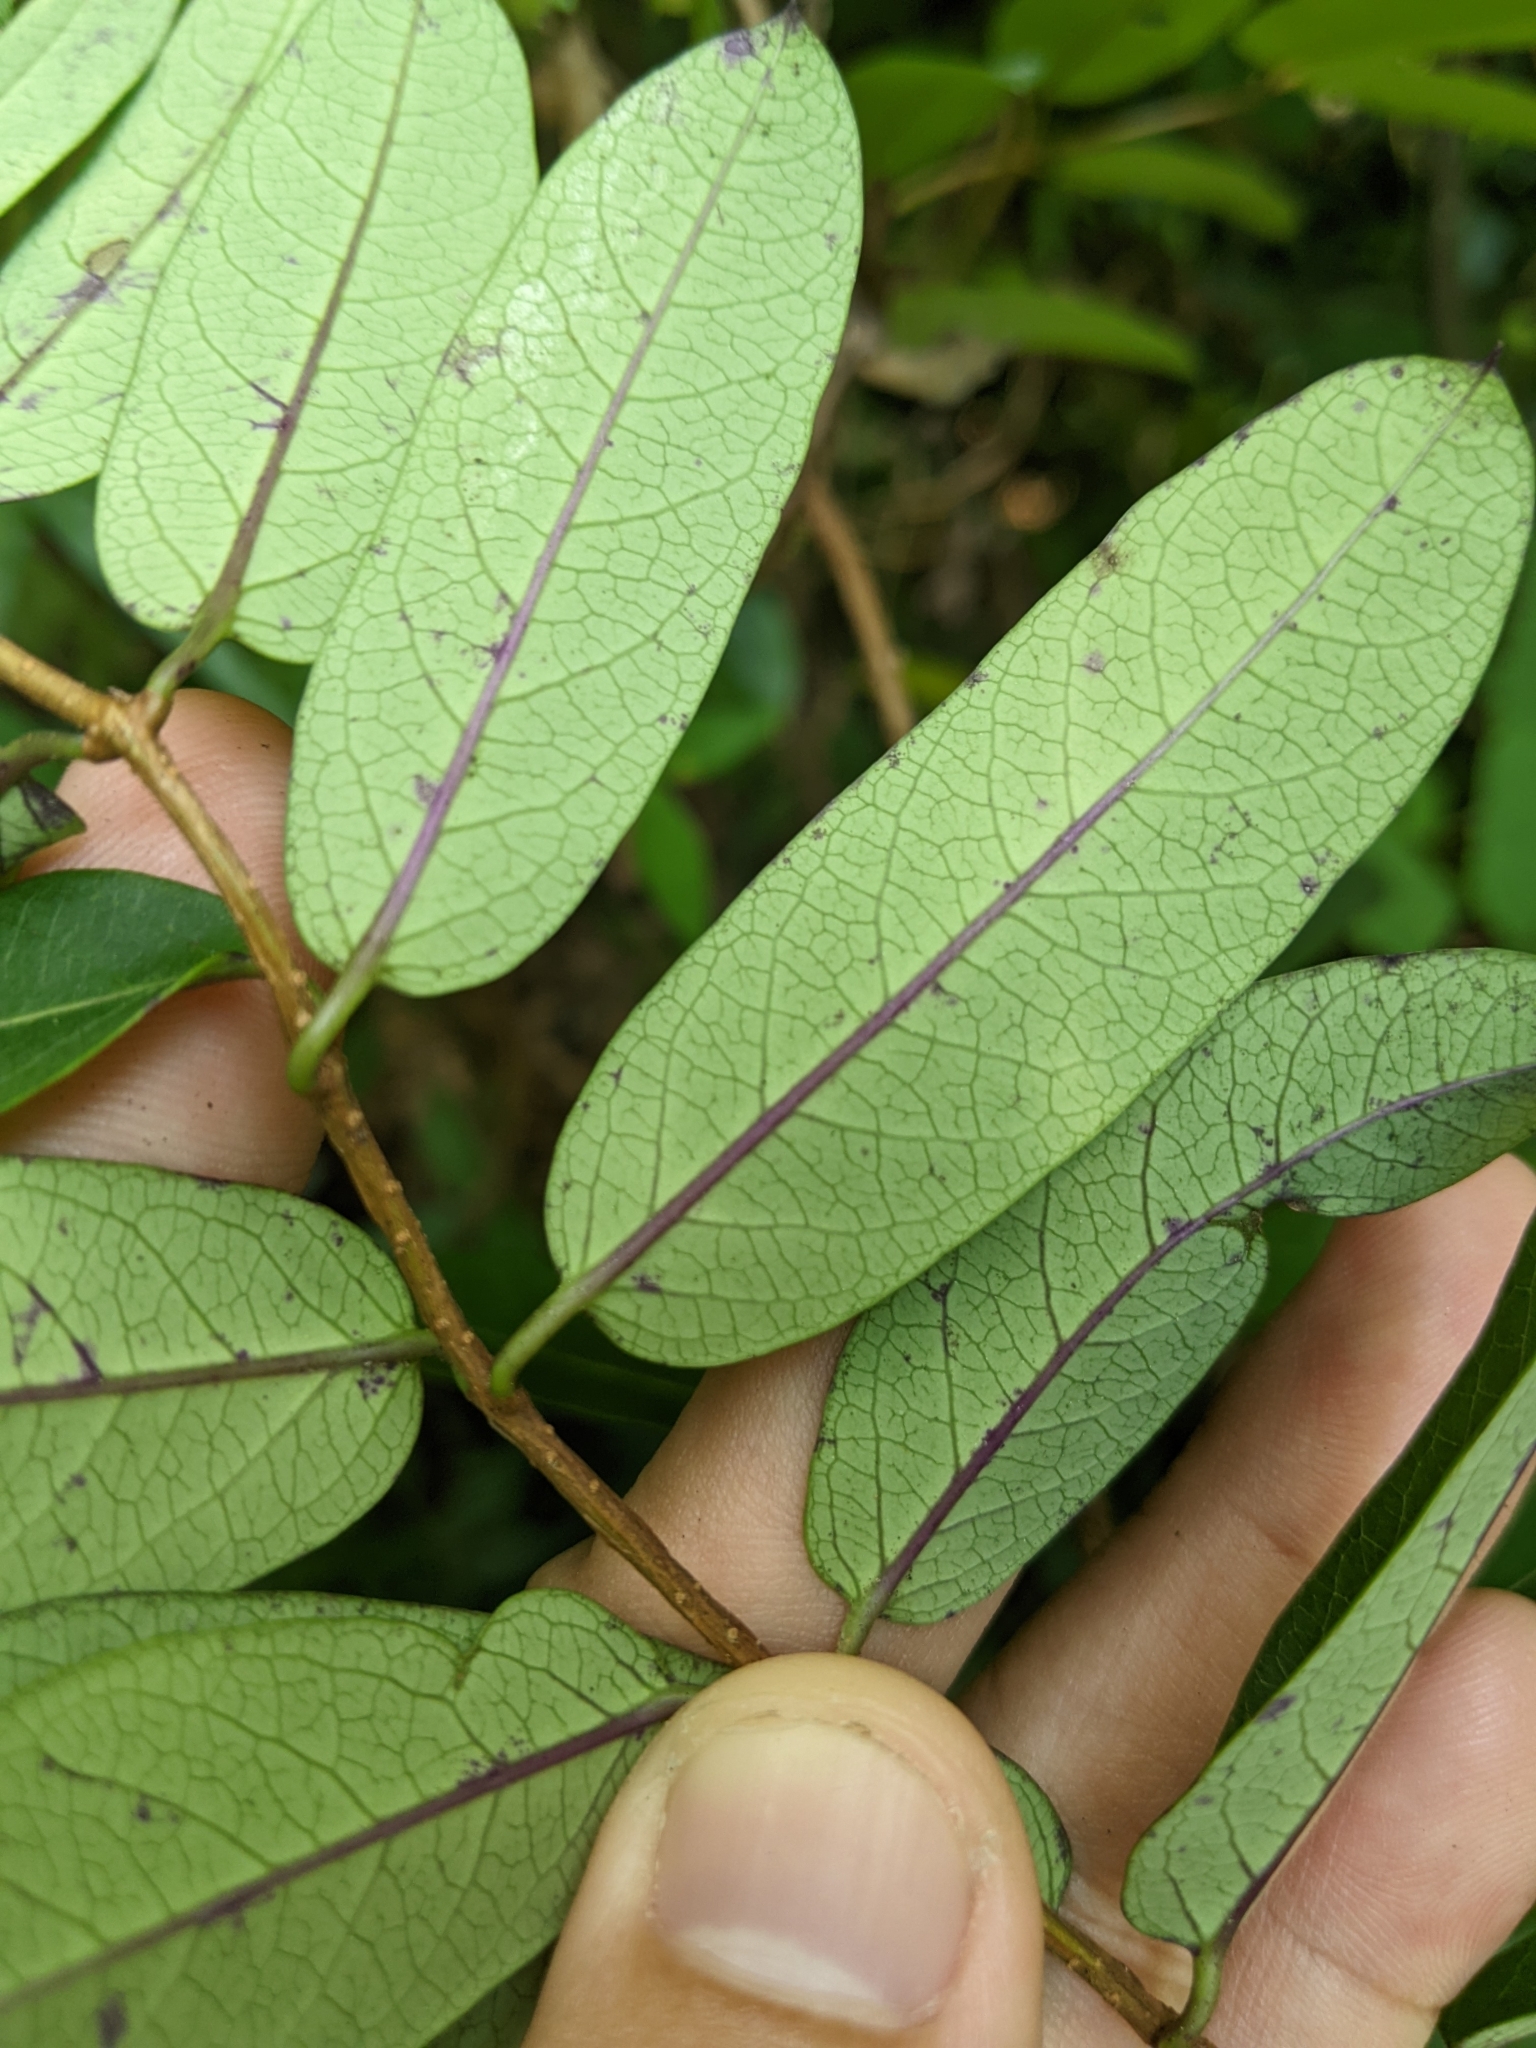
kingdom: Plantae
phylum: Tracheophyta
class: Magnoliopsida
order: Gentianales
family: Apocynaceae
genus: Cryptolepis
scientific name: Cryptolepis sinensis
